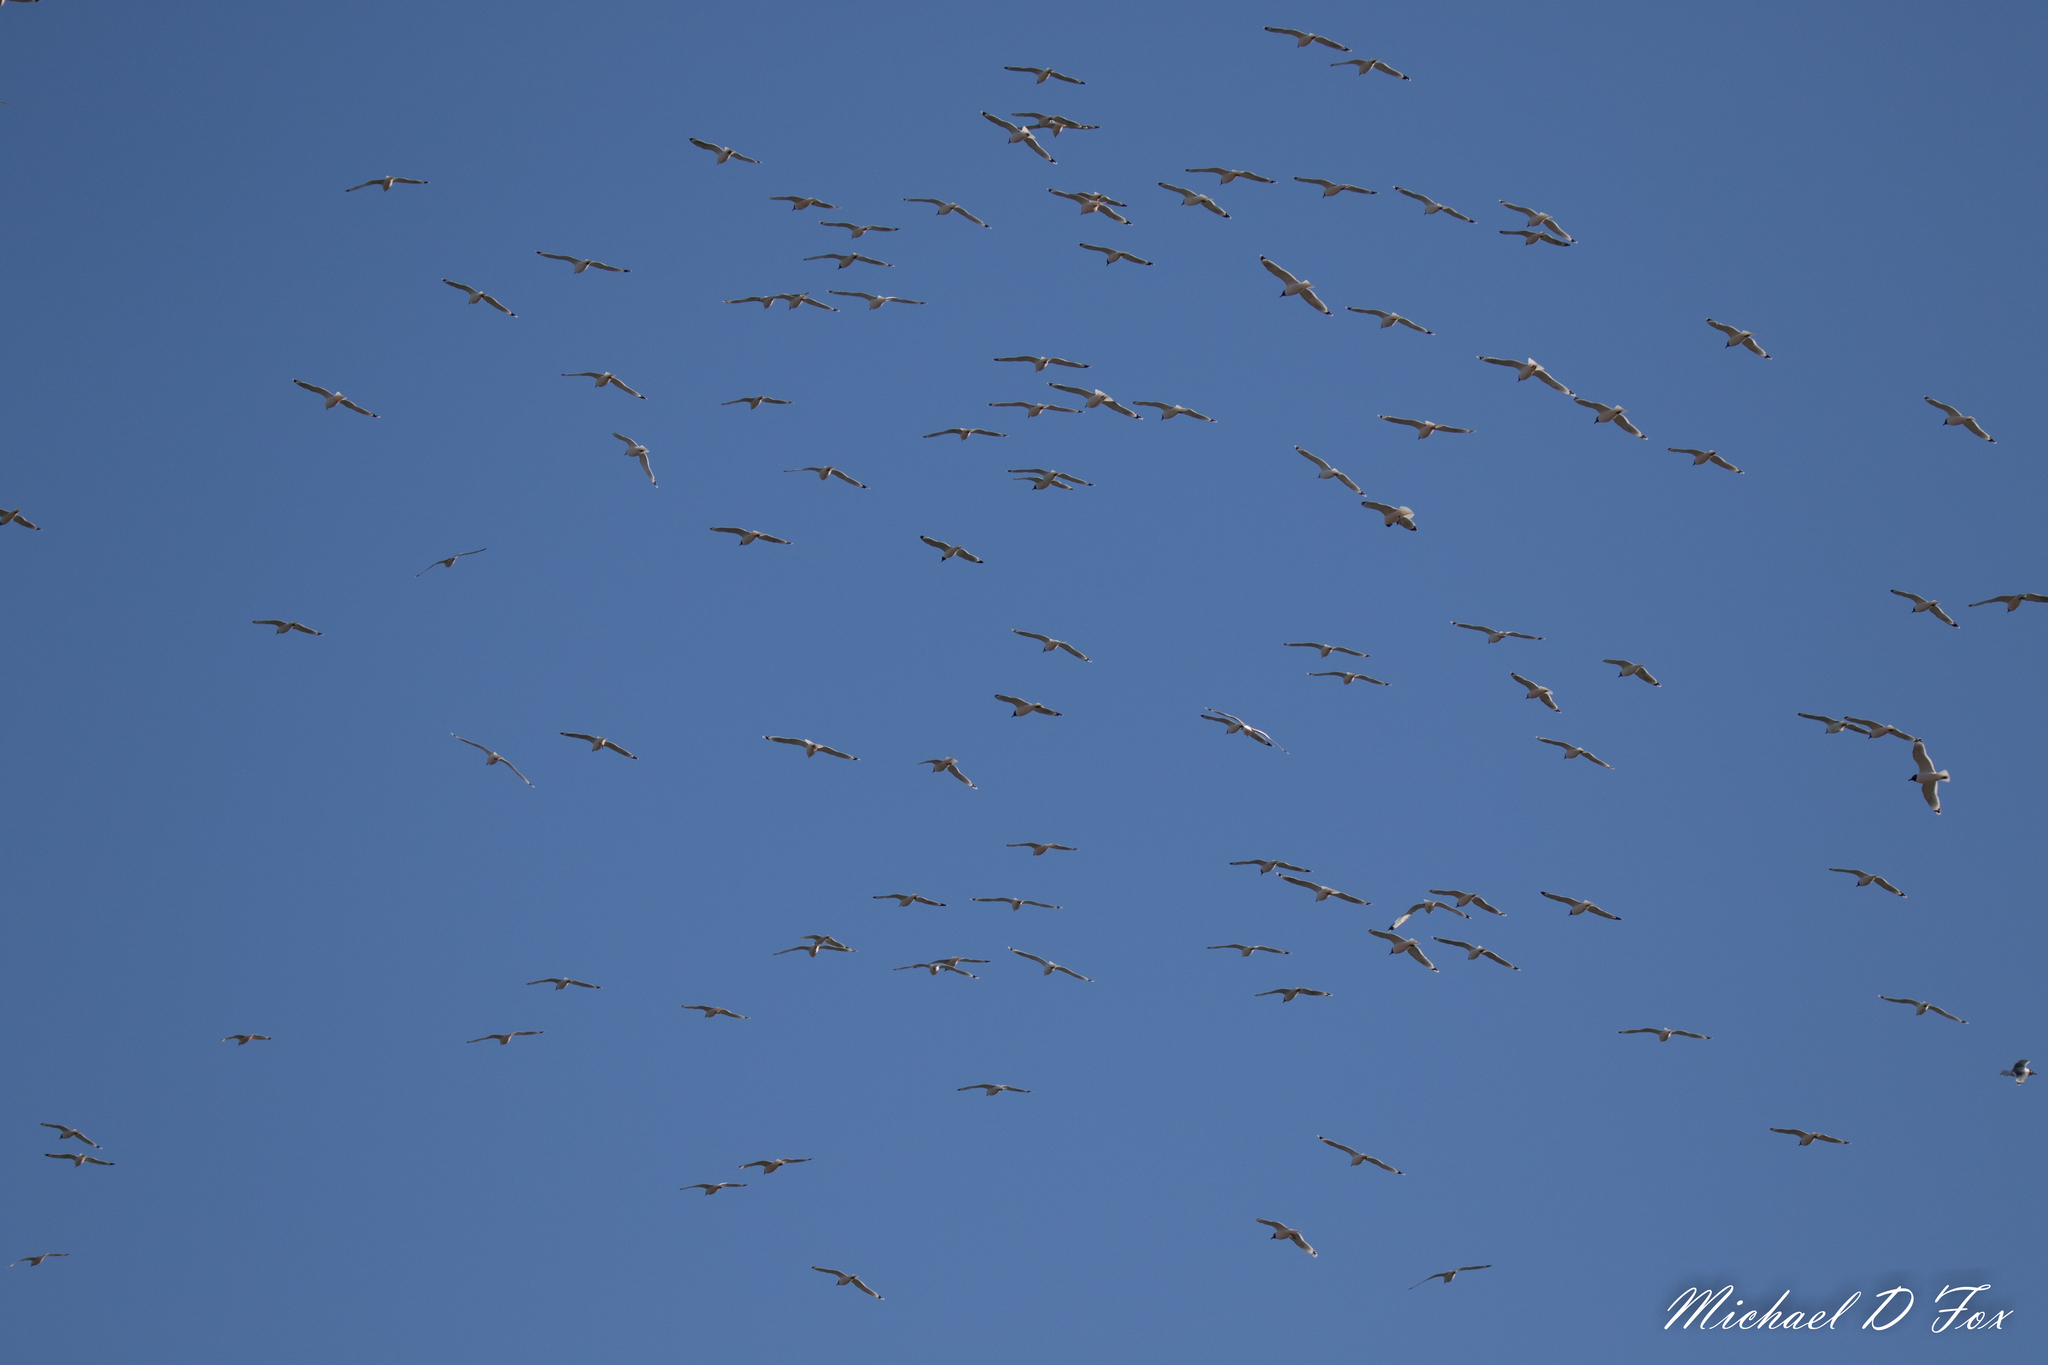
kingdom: Animalia
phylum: Chordata
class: Aves
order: Charadriiformes
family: Laridae
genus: Leucophaeus
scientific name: Leucophaeus pipixcan
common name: Franklin's gull
